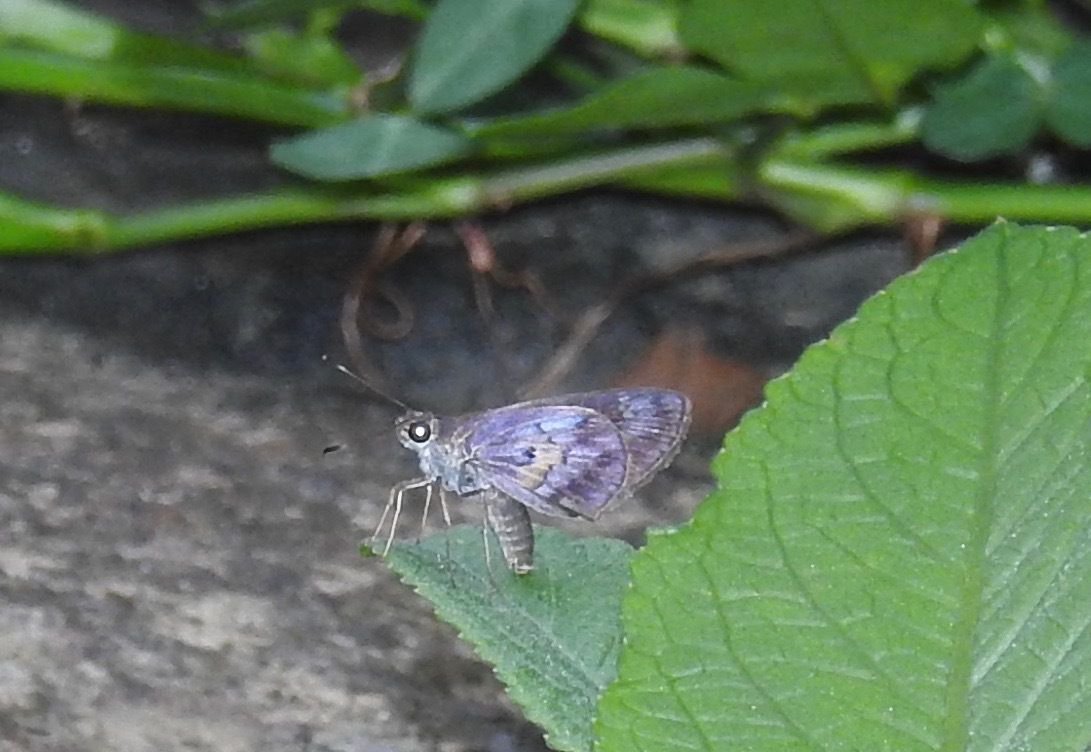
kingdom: Animalia
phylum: Arthropoda
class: Insecta
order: Lepidoptera
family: Hesperiidae
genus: Phanis
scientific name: Phanis aletes
